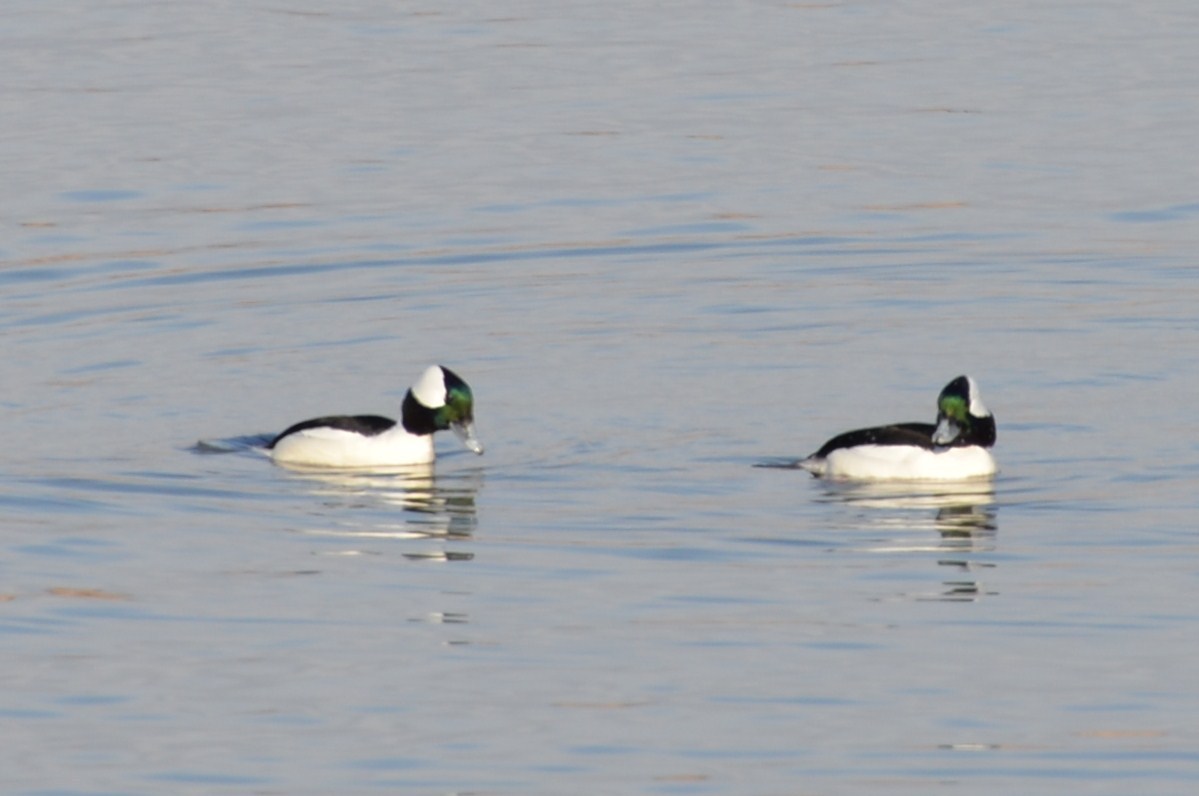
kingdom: Animalia
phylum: Chordata
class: Aves
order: Anseriformes
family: Anatidae
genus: Bucephala
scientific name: Bucephala albeola
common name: Bufflehead
